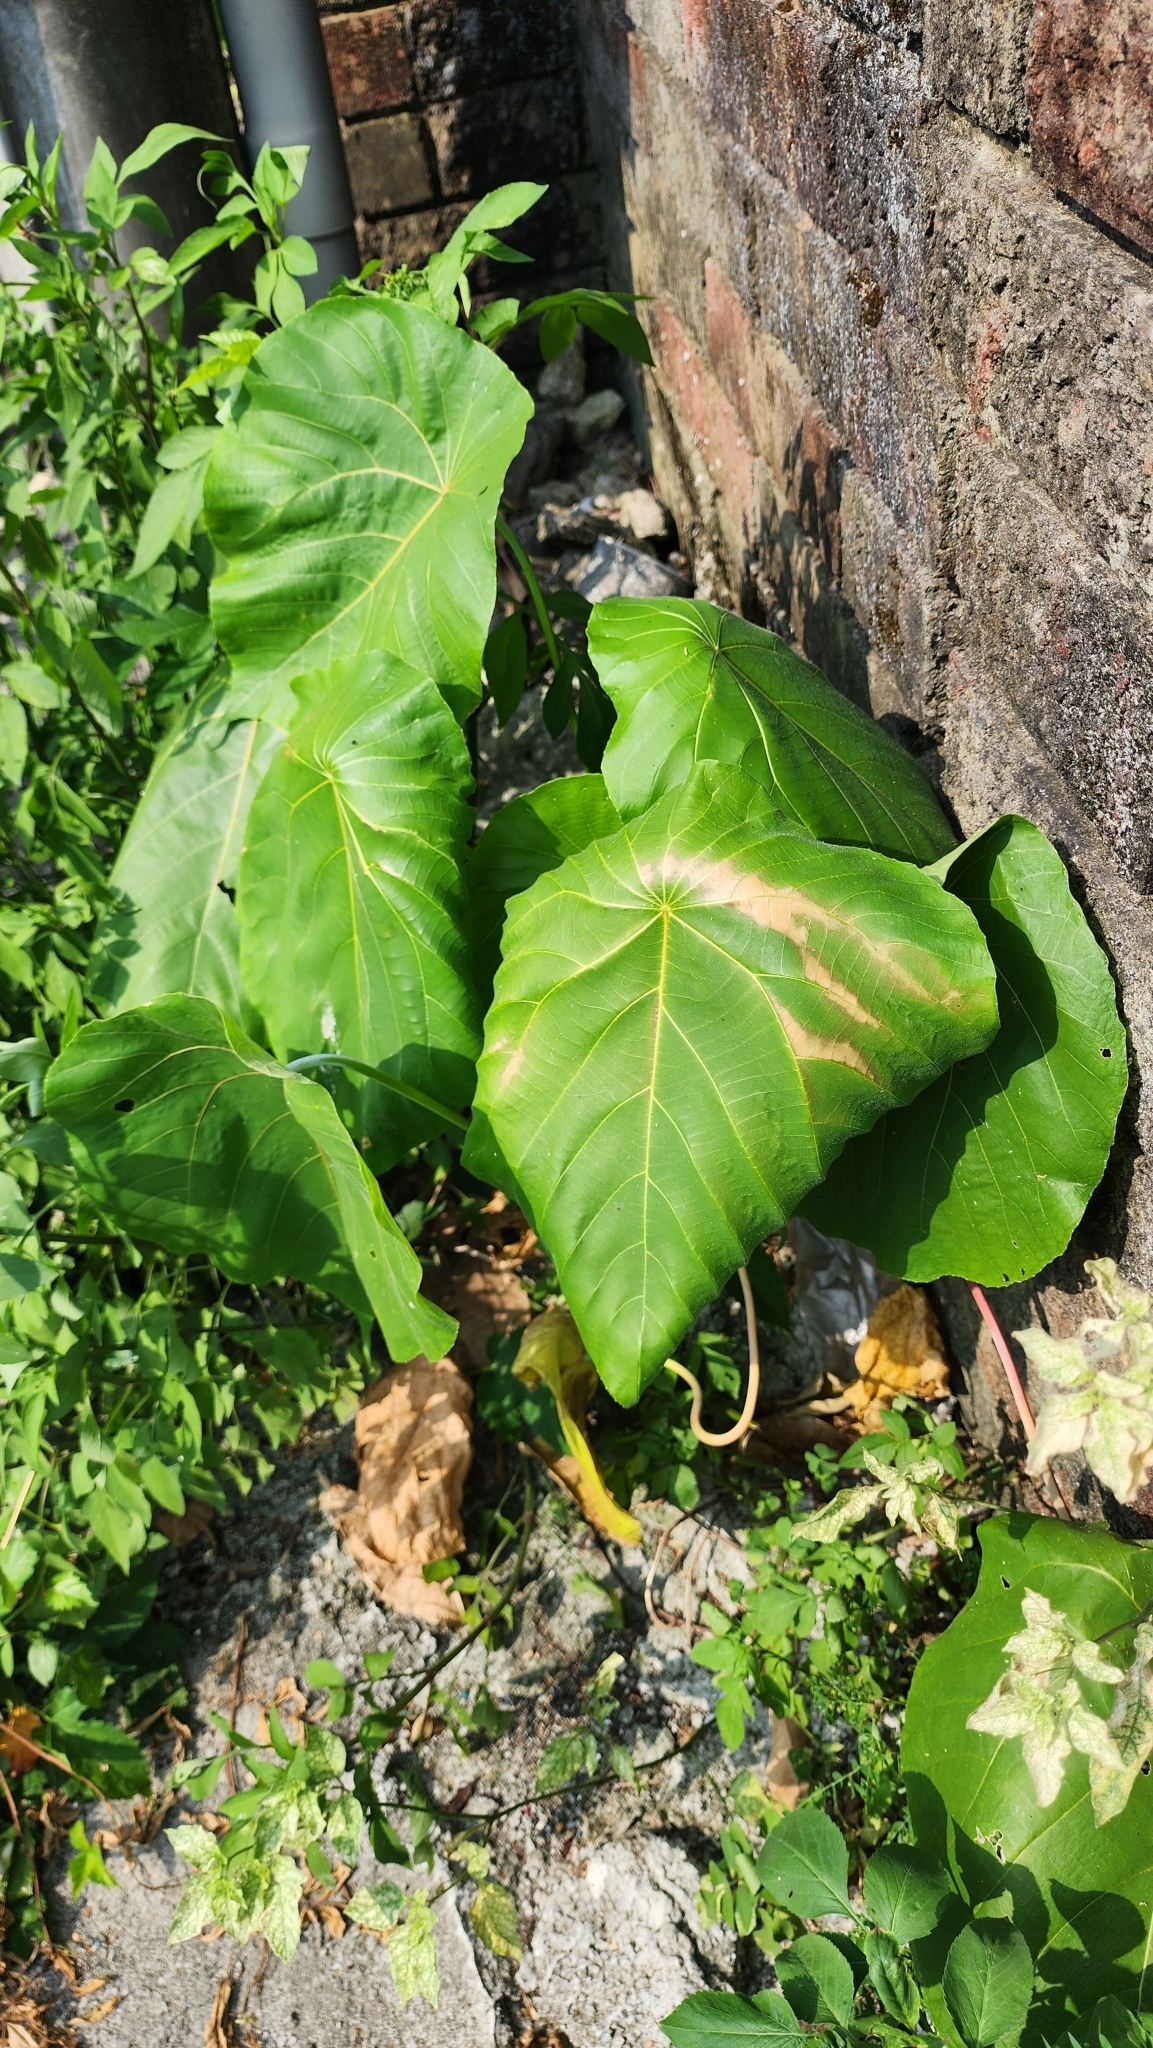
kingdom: Plantae
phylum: Tracheophyta
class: Magnoliopsida
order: Malpighiales
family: Euphorbiaceae
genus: Macaranga
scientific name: Macaranga tanarius
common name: Parasol leaf tree
